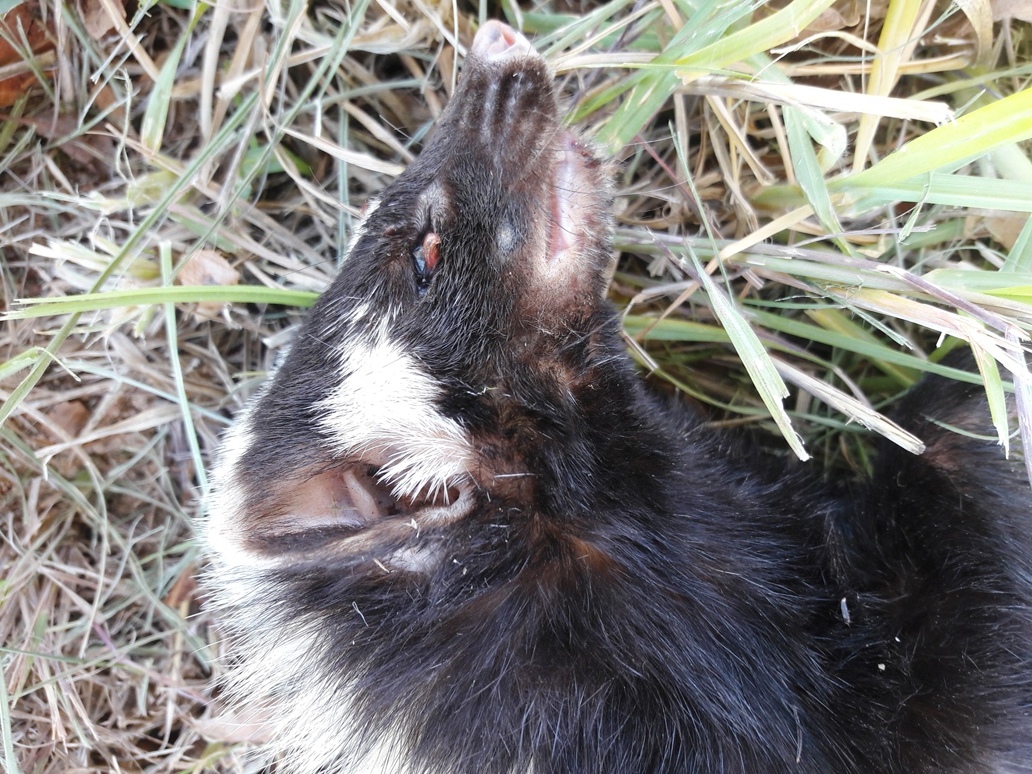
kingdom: Animalia
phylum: Chordata
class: Mammalia
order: Carnivora
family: Mustelidae
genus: Ictonyx
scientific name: Ictonyx striatus
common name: Striped polecat
